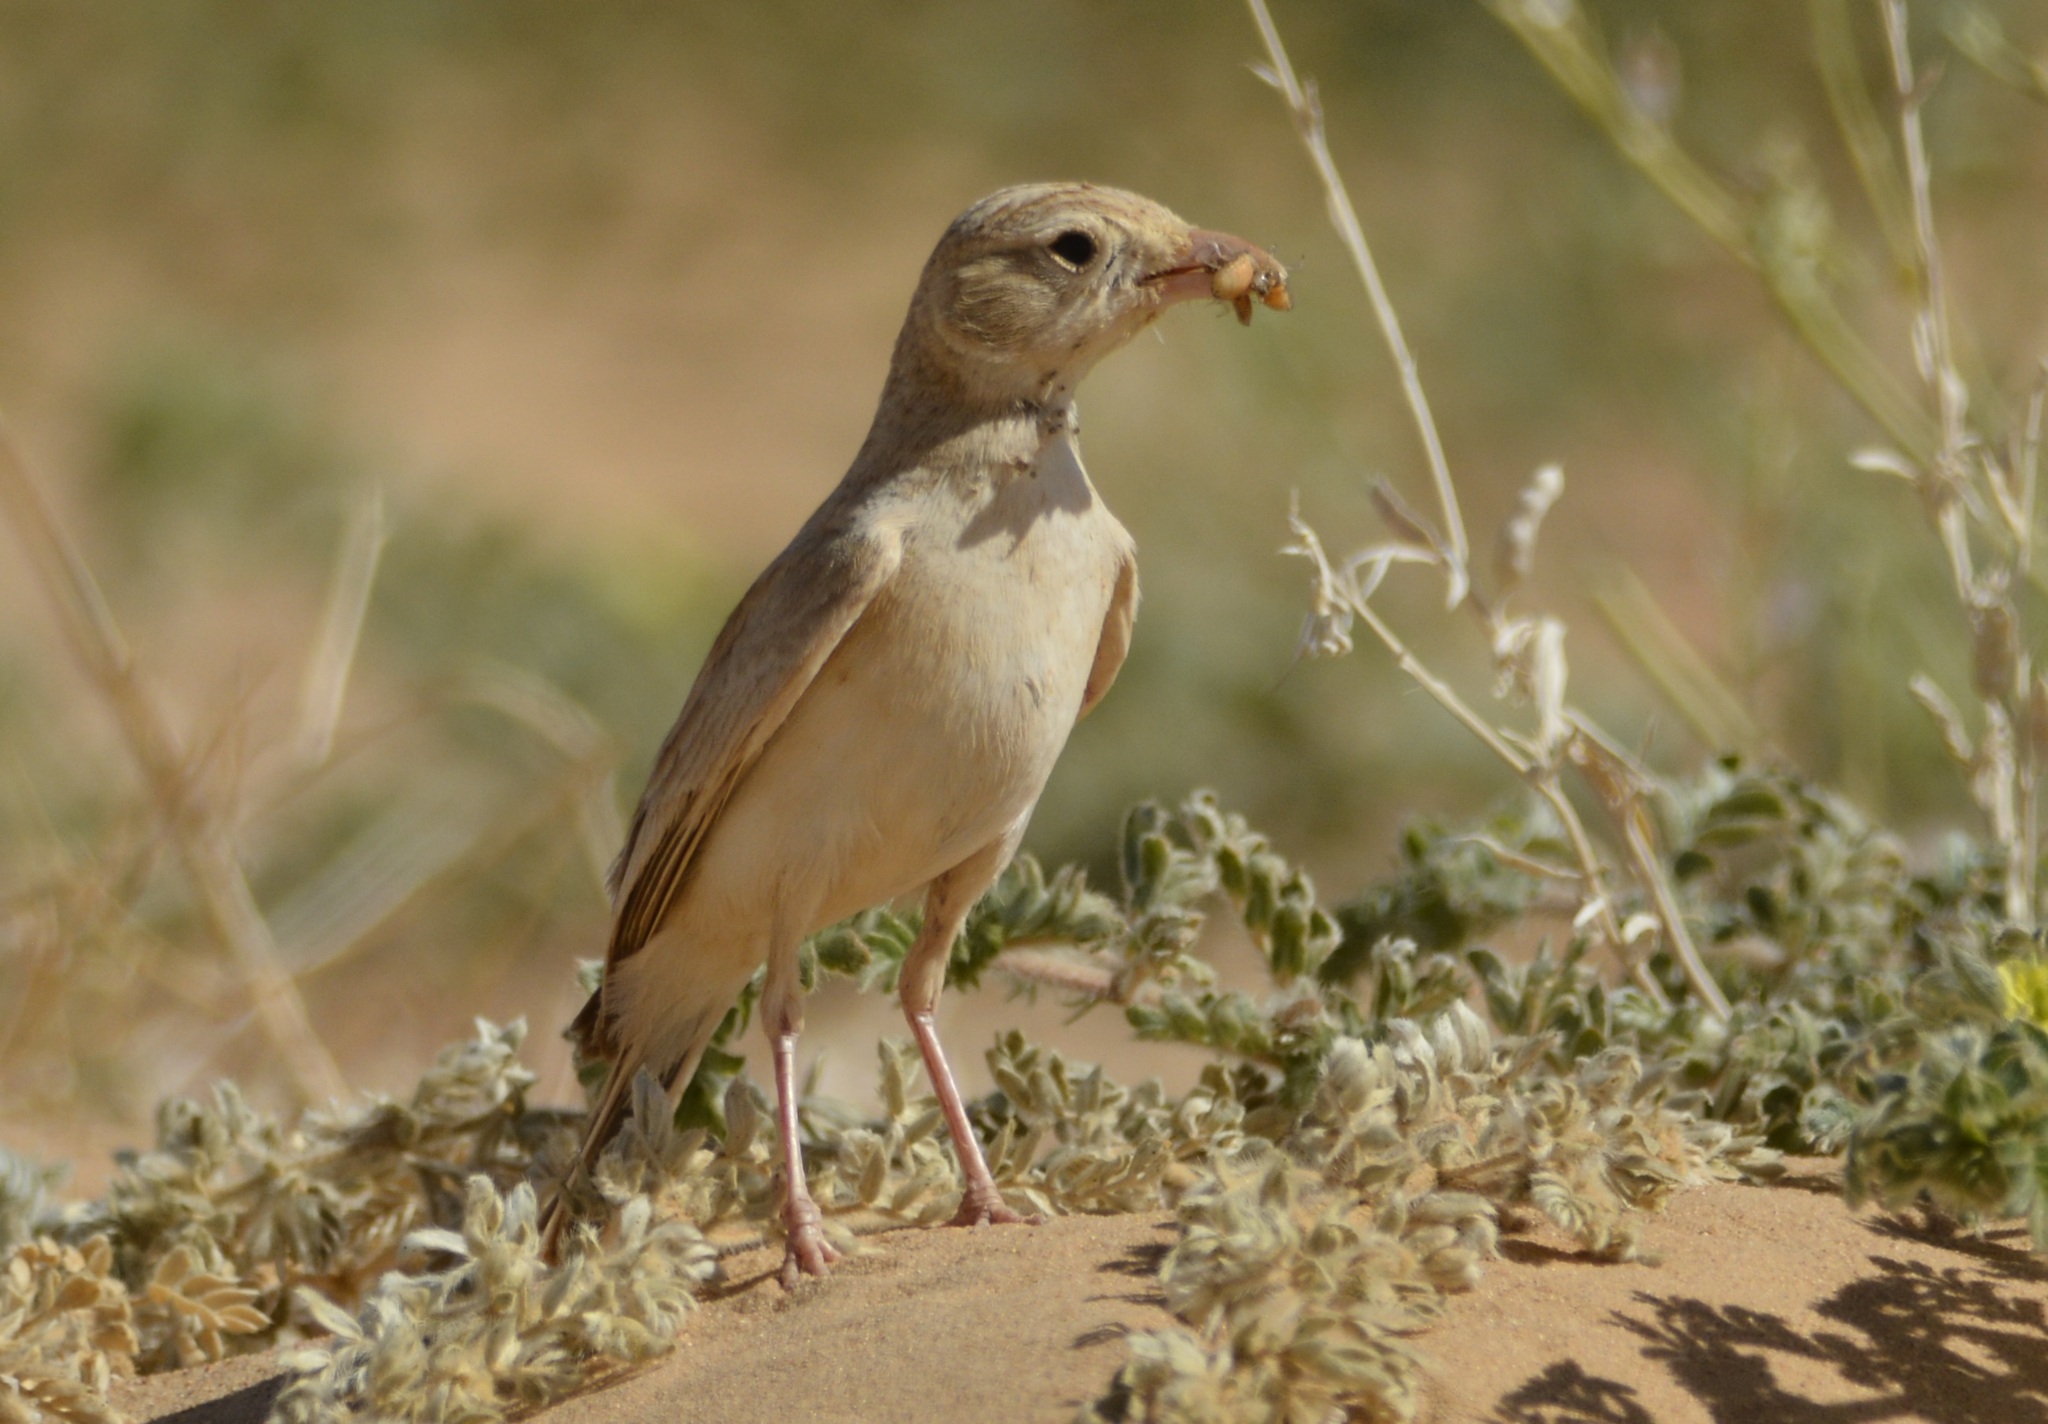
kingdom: Animalia
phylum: Chordata
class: Aves
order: Passeriformes
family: Alaudidae
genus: Eremalauda
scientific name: Eremalauda dunni
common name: Dunn's lark
